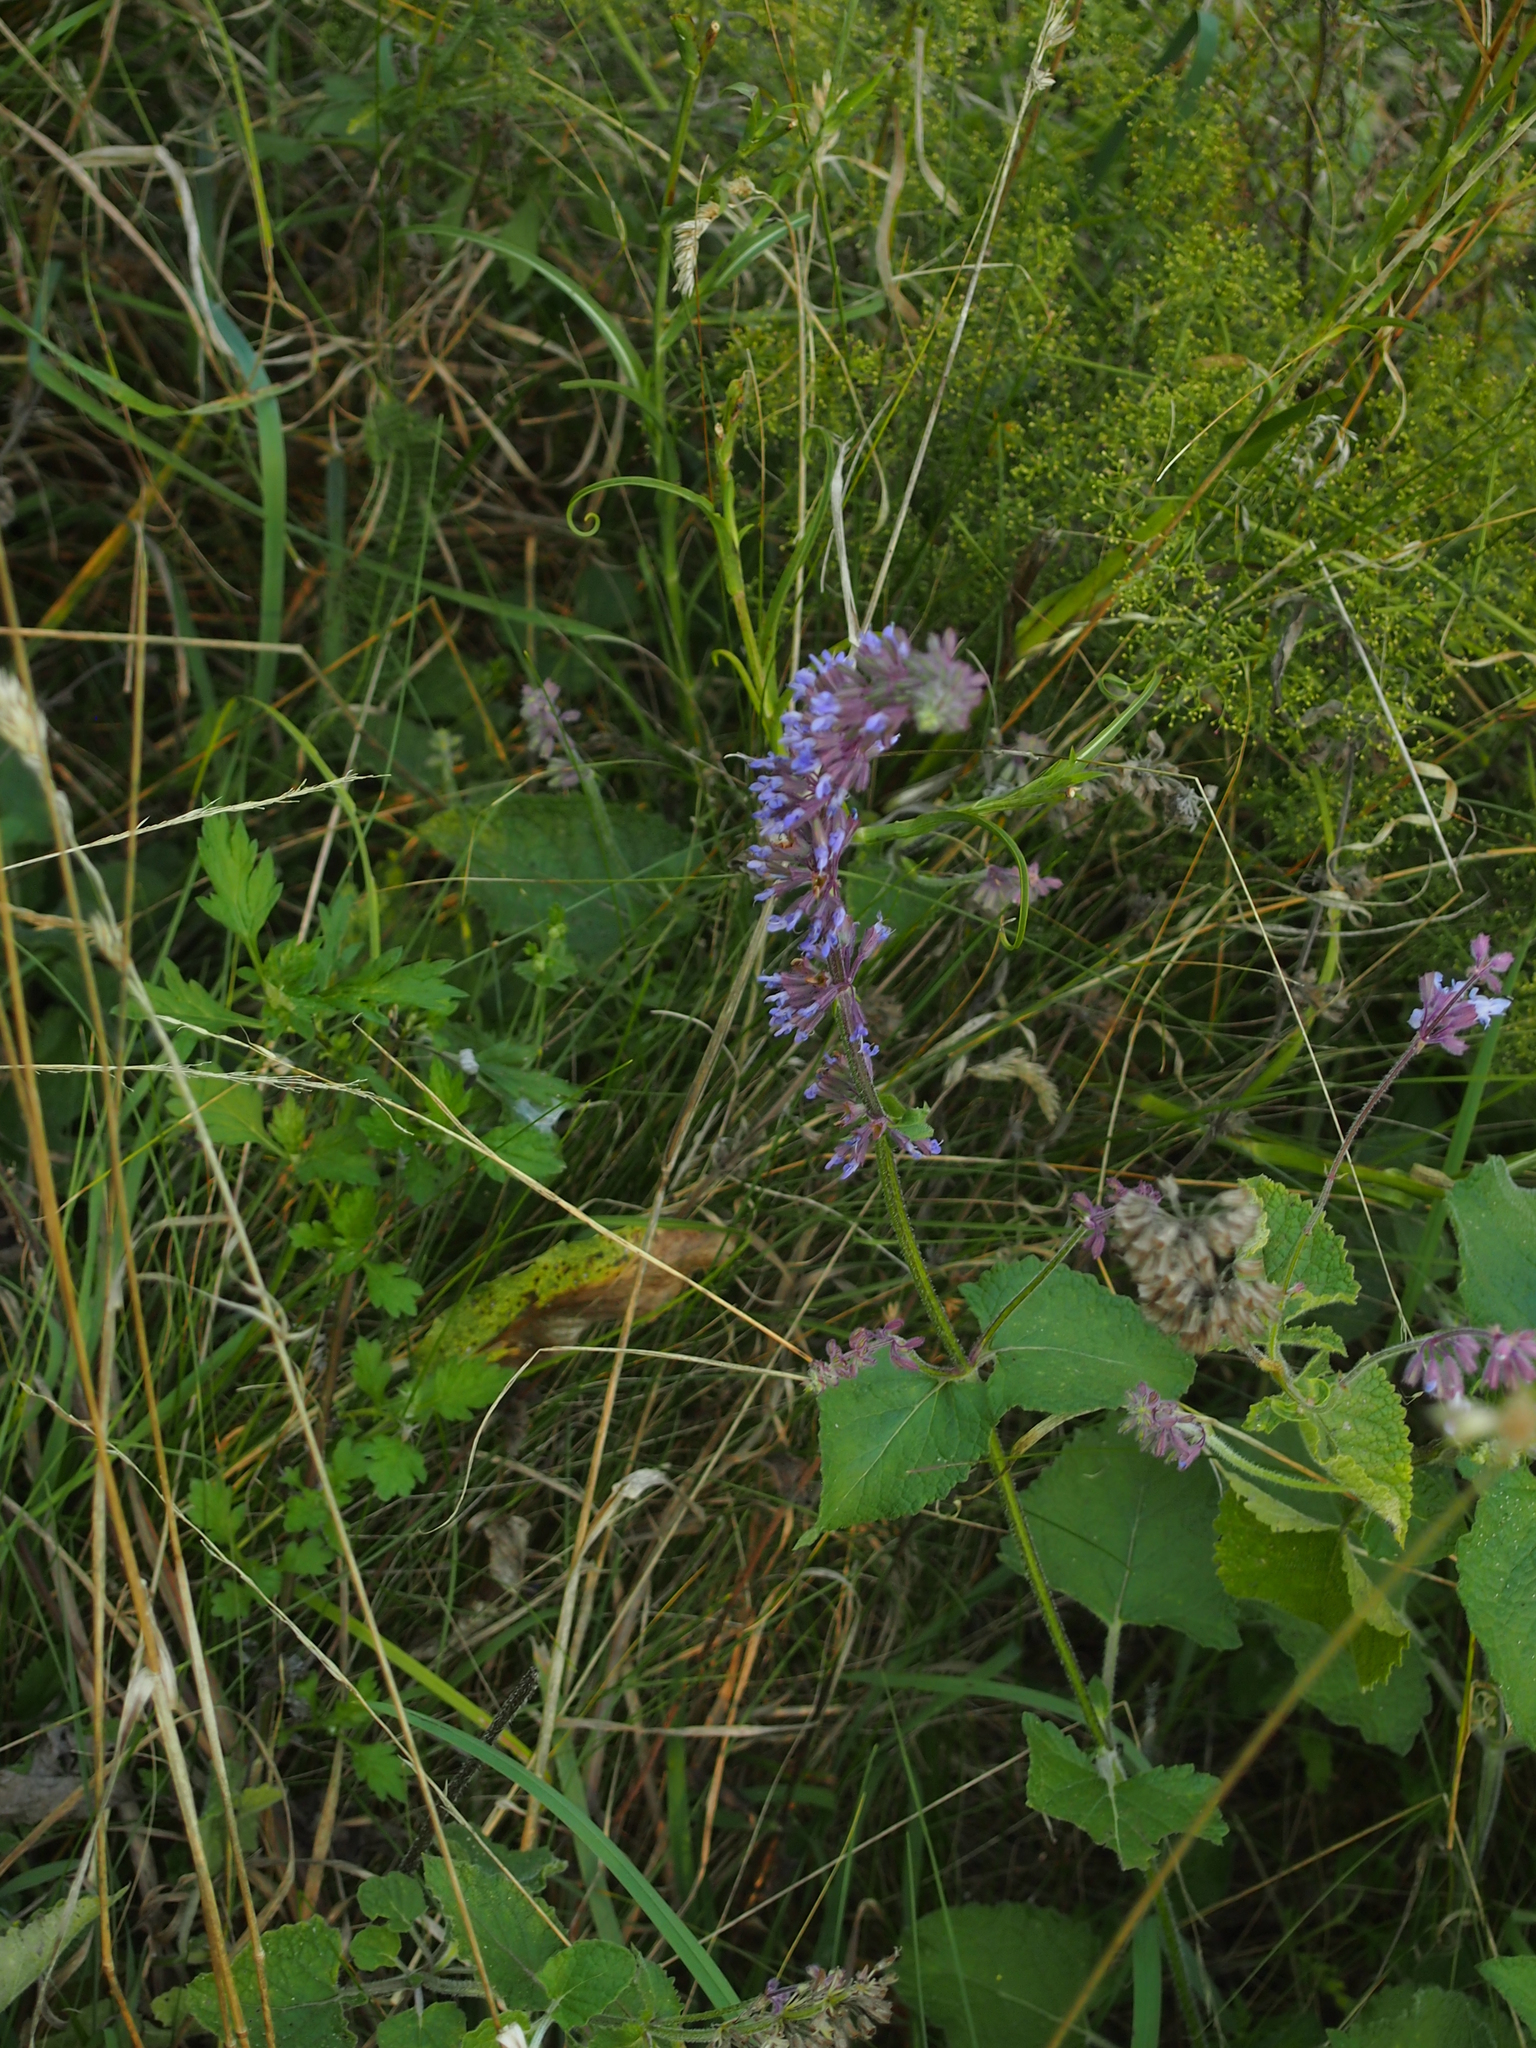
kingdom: Plantae
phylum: Tracheophyta
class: Magnoliopsida
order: Lamiales
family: Lamiaceae
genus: Salvia
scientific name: Salvia verticillata
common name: Whorled clary
